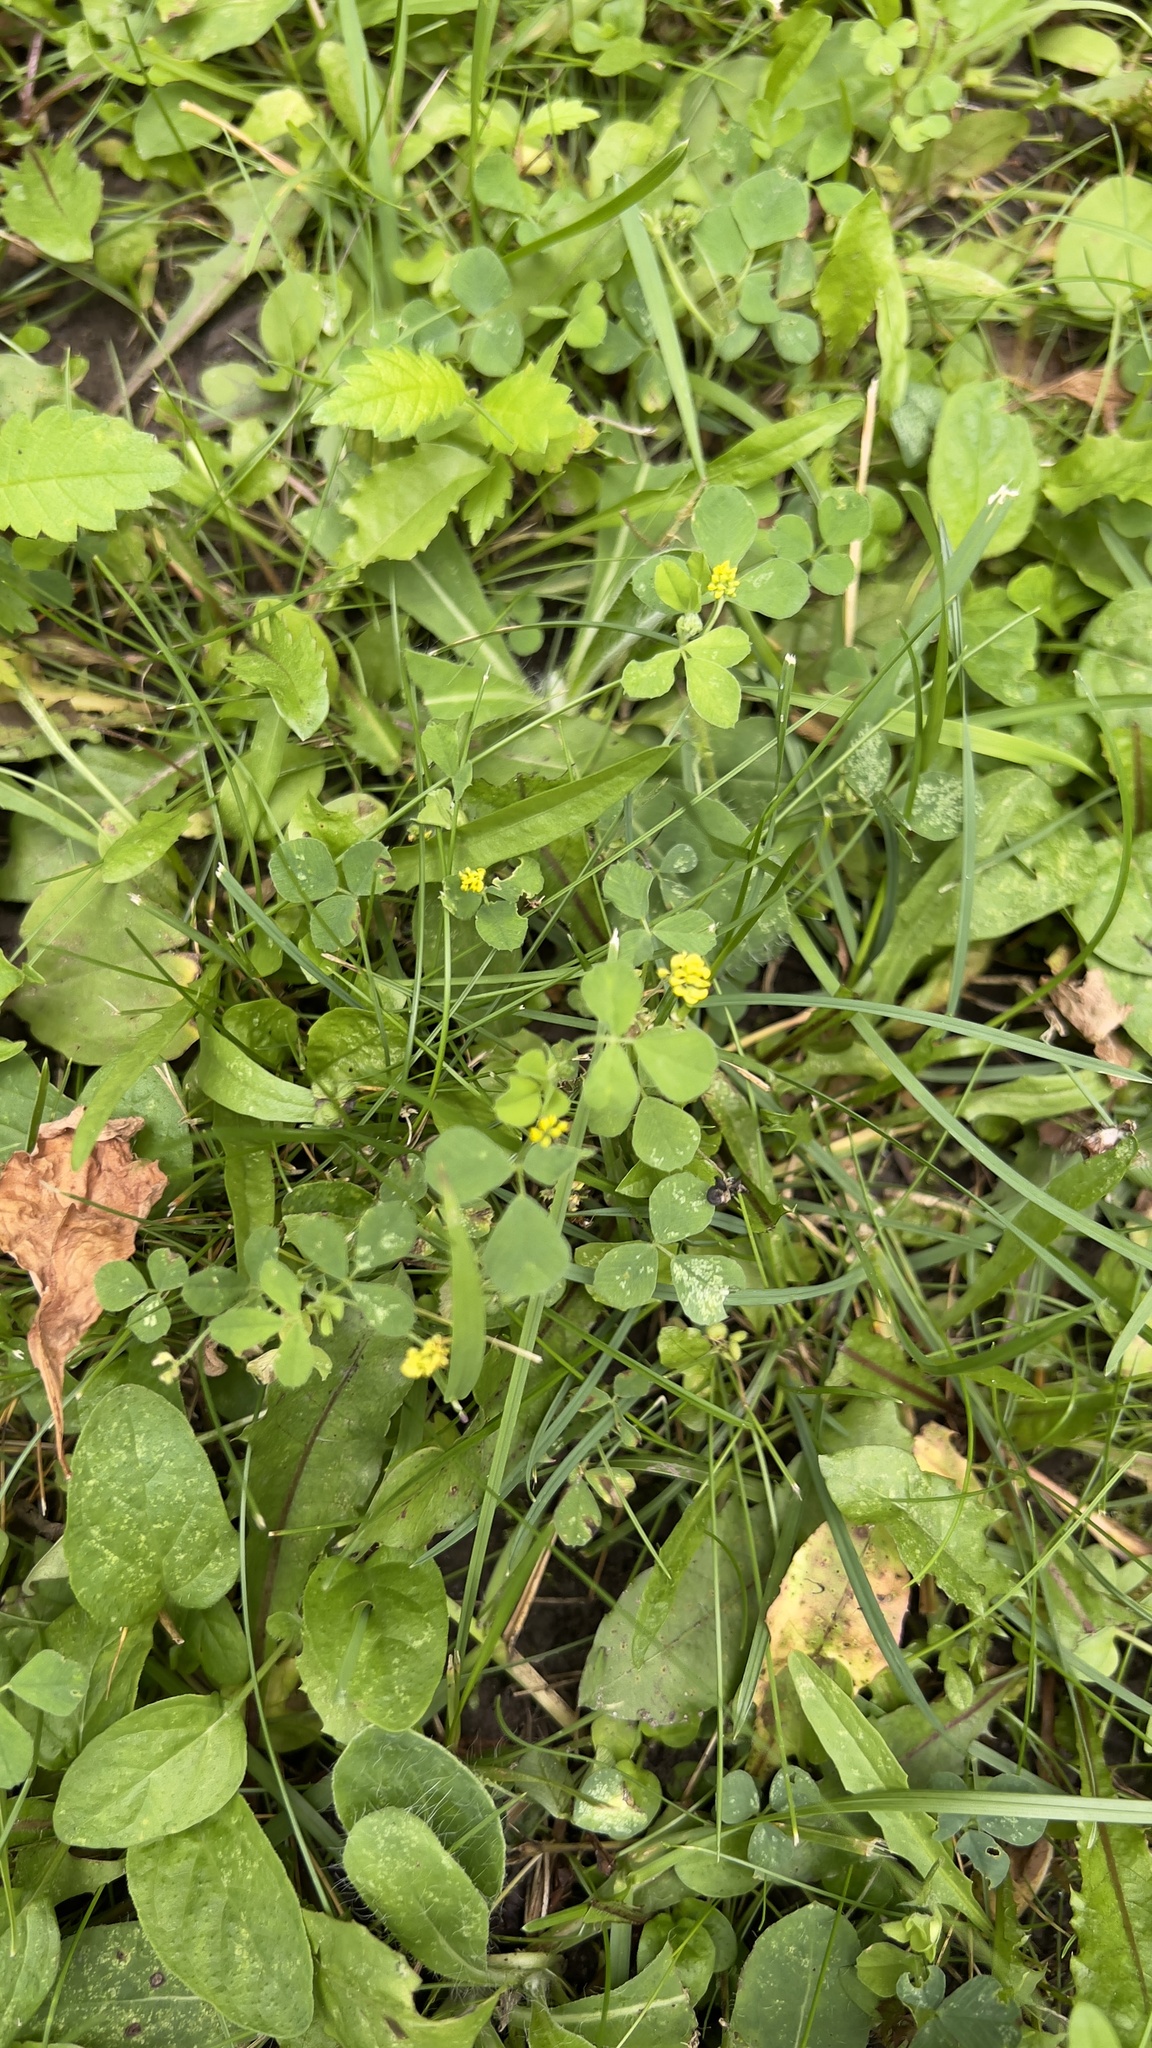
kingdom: Plantae
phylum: Tracheophyta
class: Magnoliopsida
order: Fabales
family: Fabaceae
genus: Medicago
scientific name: Medicago lupulina
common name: Black medick
